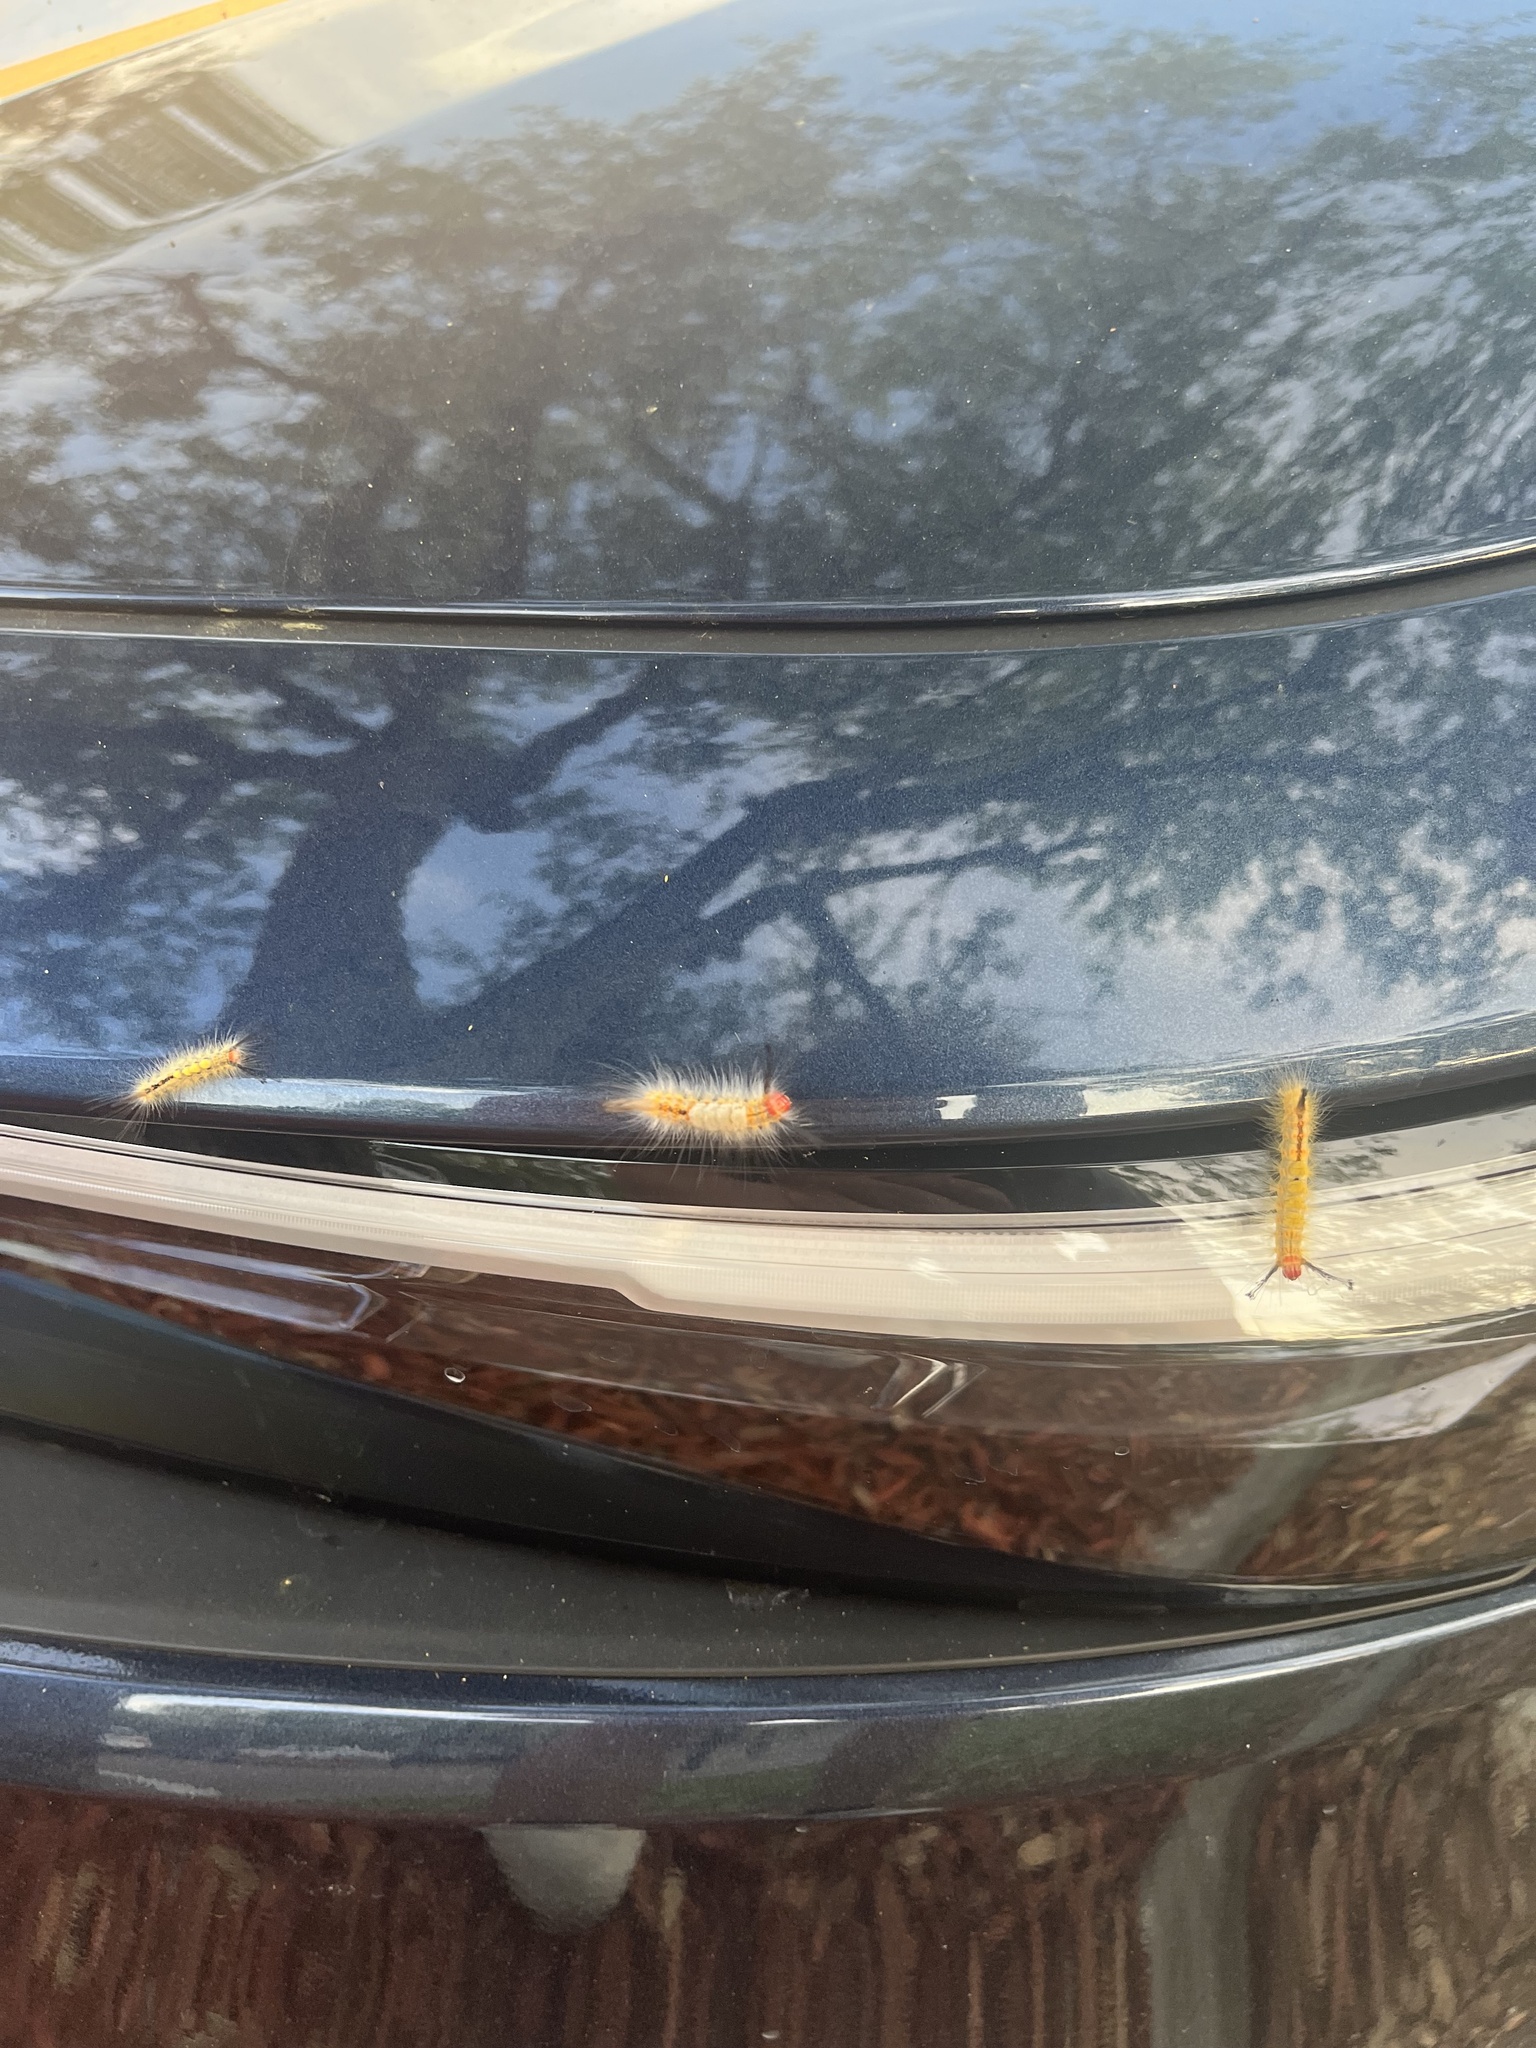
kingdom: Animalia
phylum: Arthropoda
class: Insecta
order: Lepidoptera
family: Erebidae
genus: Orgyia
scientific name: Orgyia detrita
